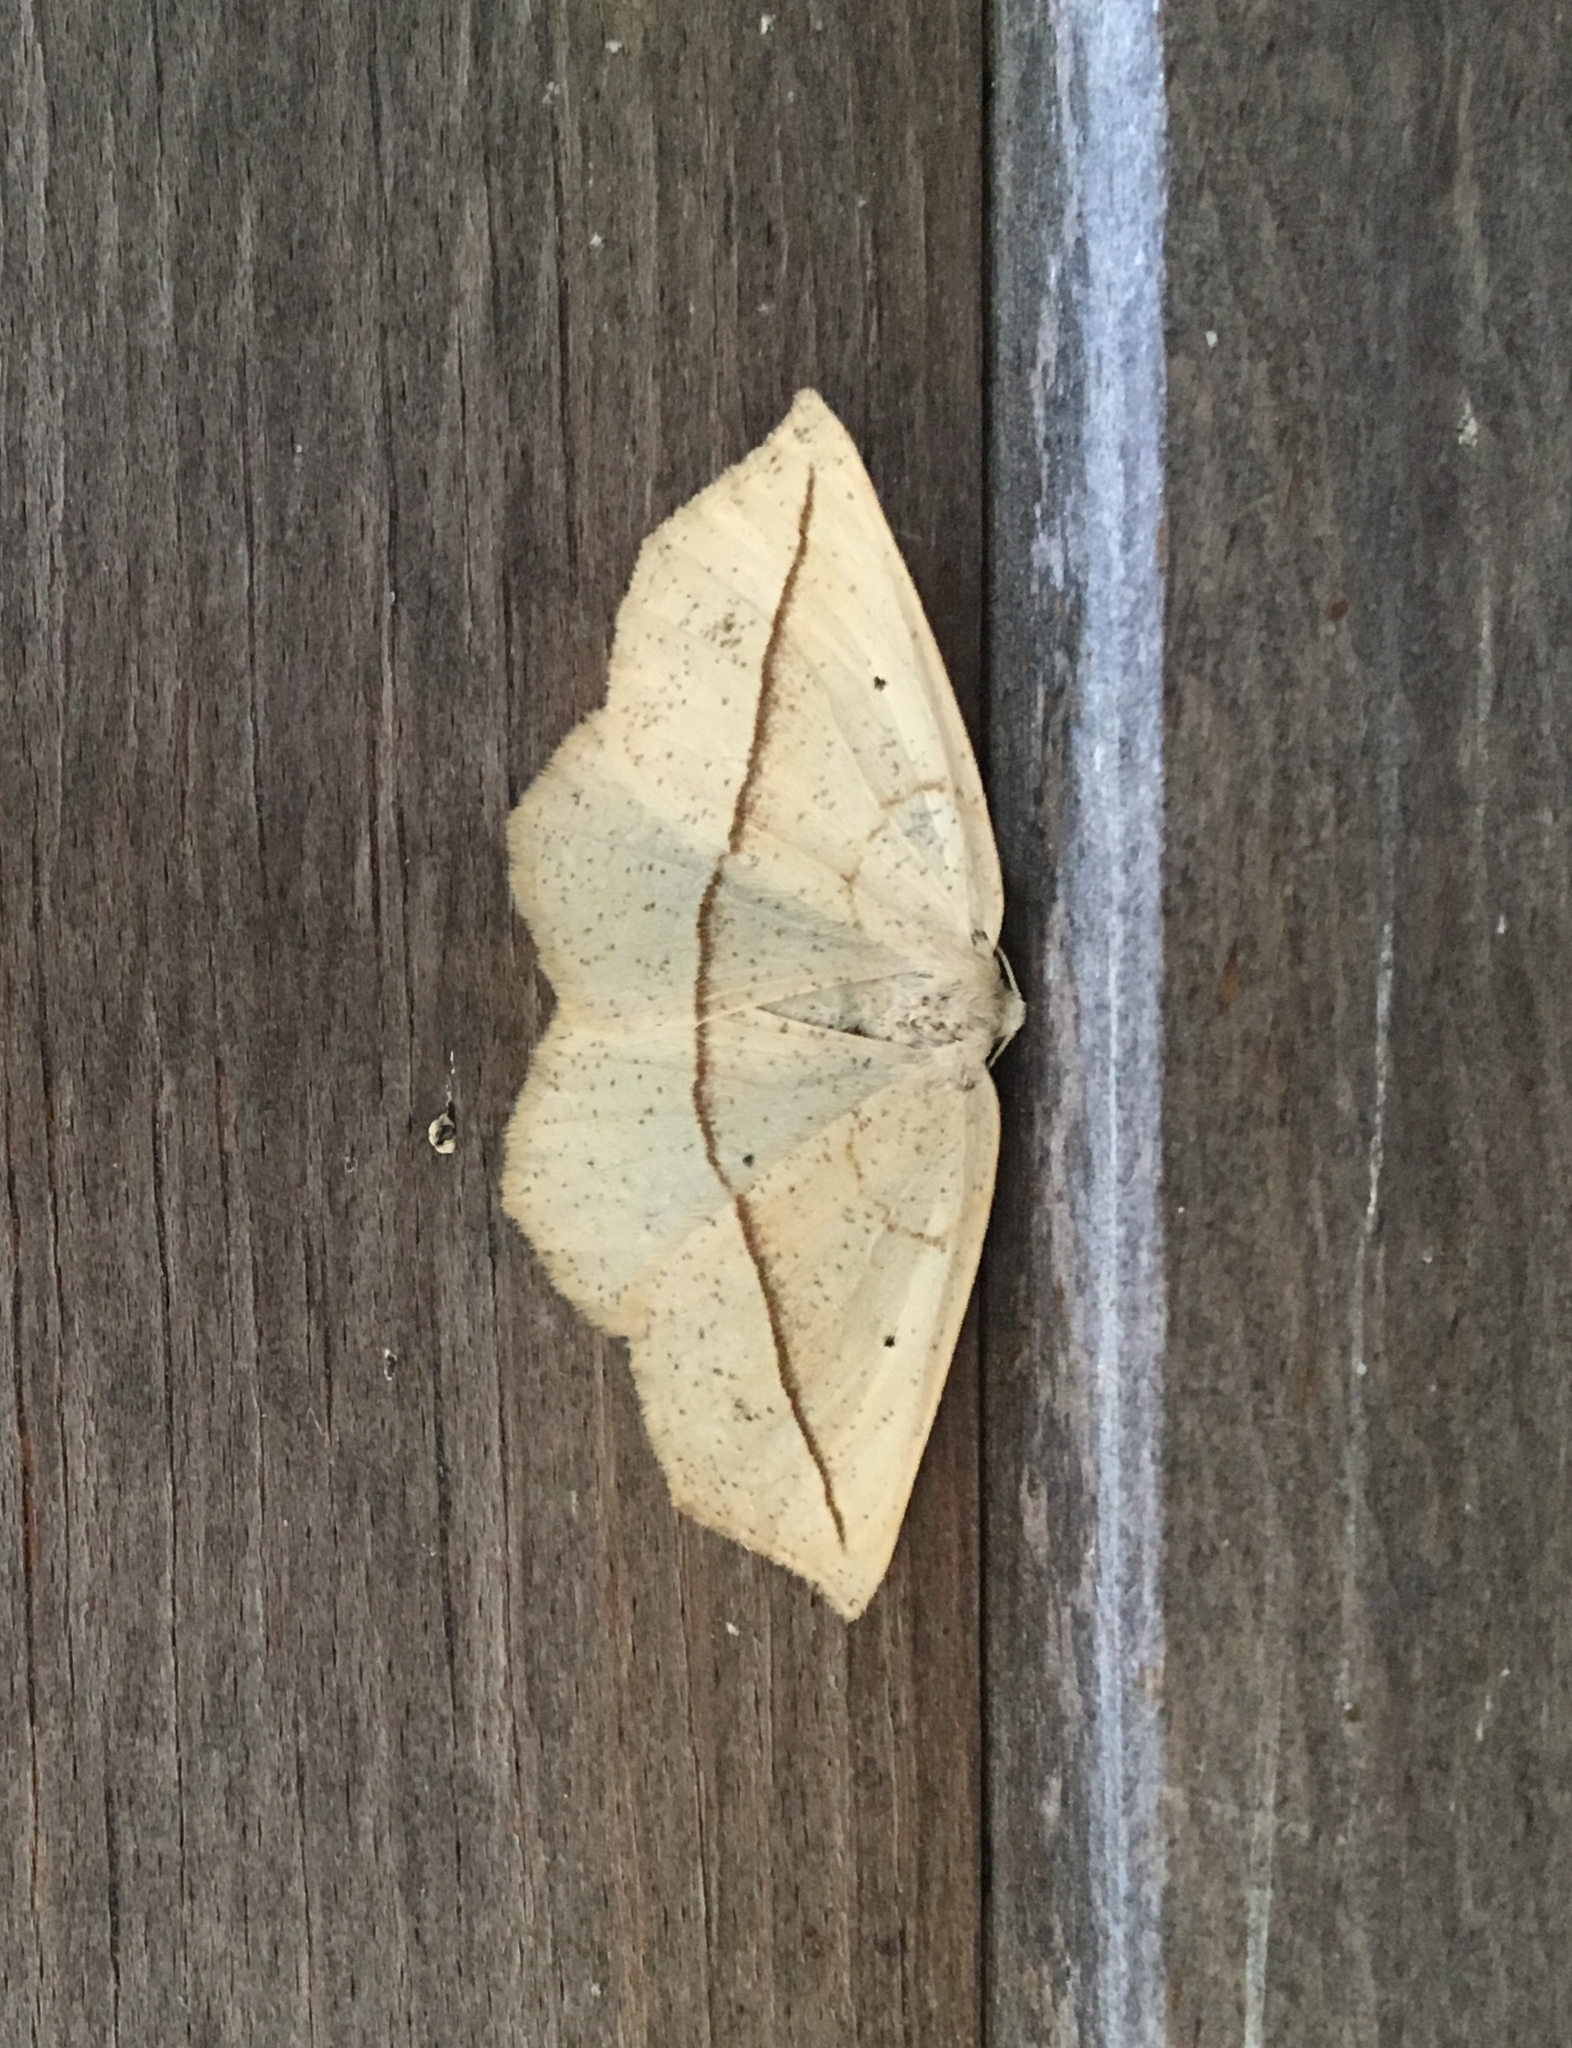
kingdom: Animalia
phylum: Arthropoda
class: Insecta
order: Lepidoptera
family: Geometridae
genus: Eusarca
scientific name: Eusarca confusaria
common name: Confused eusarca
